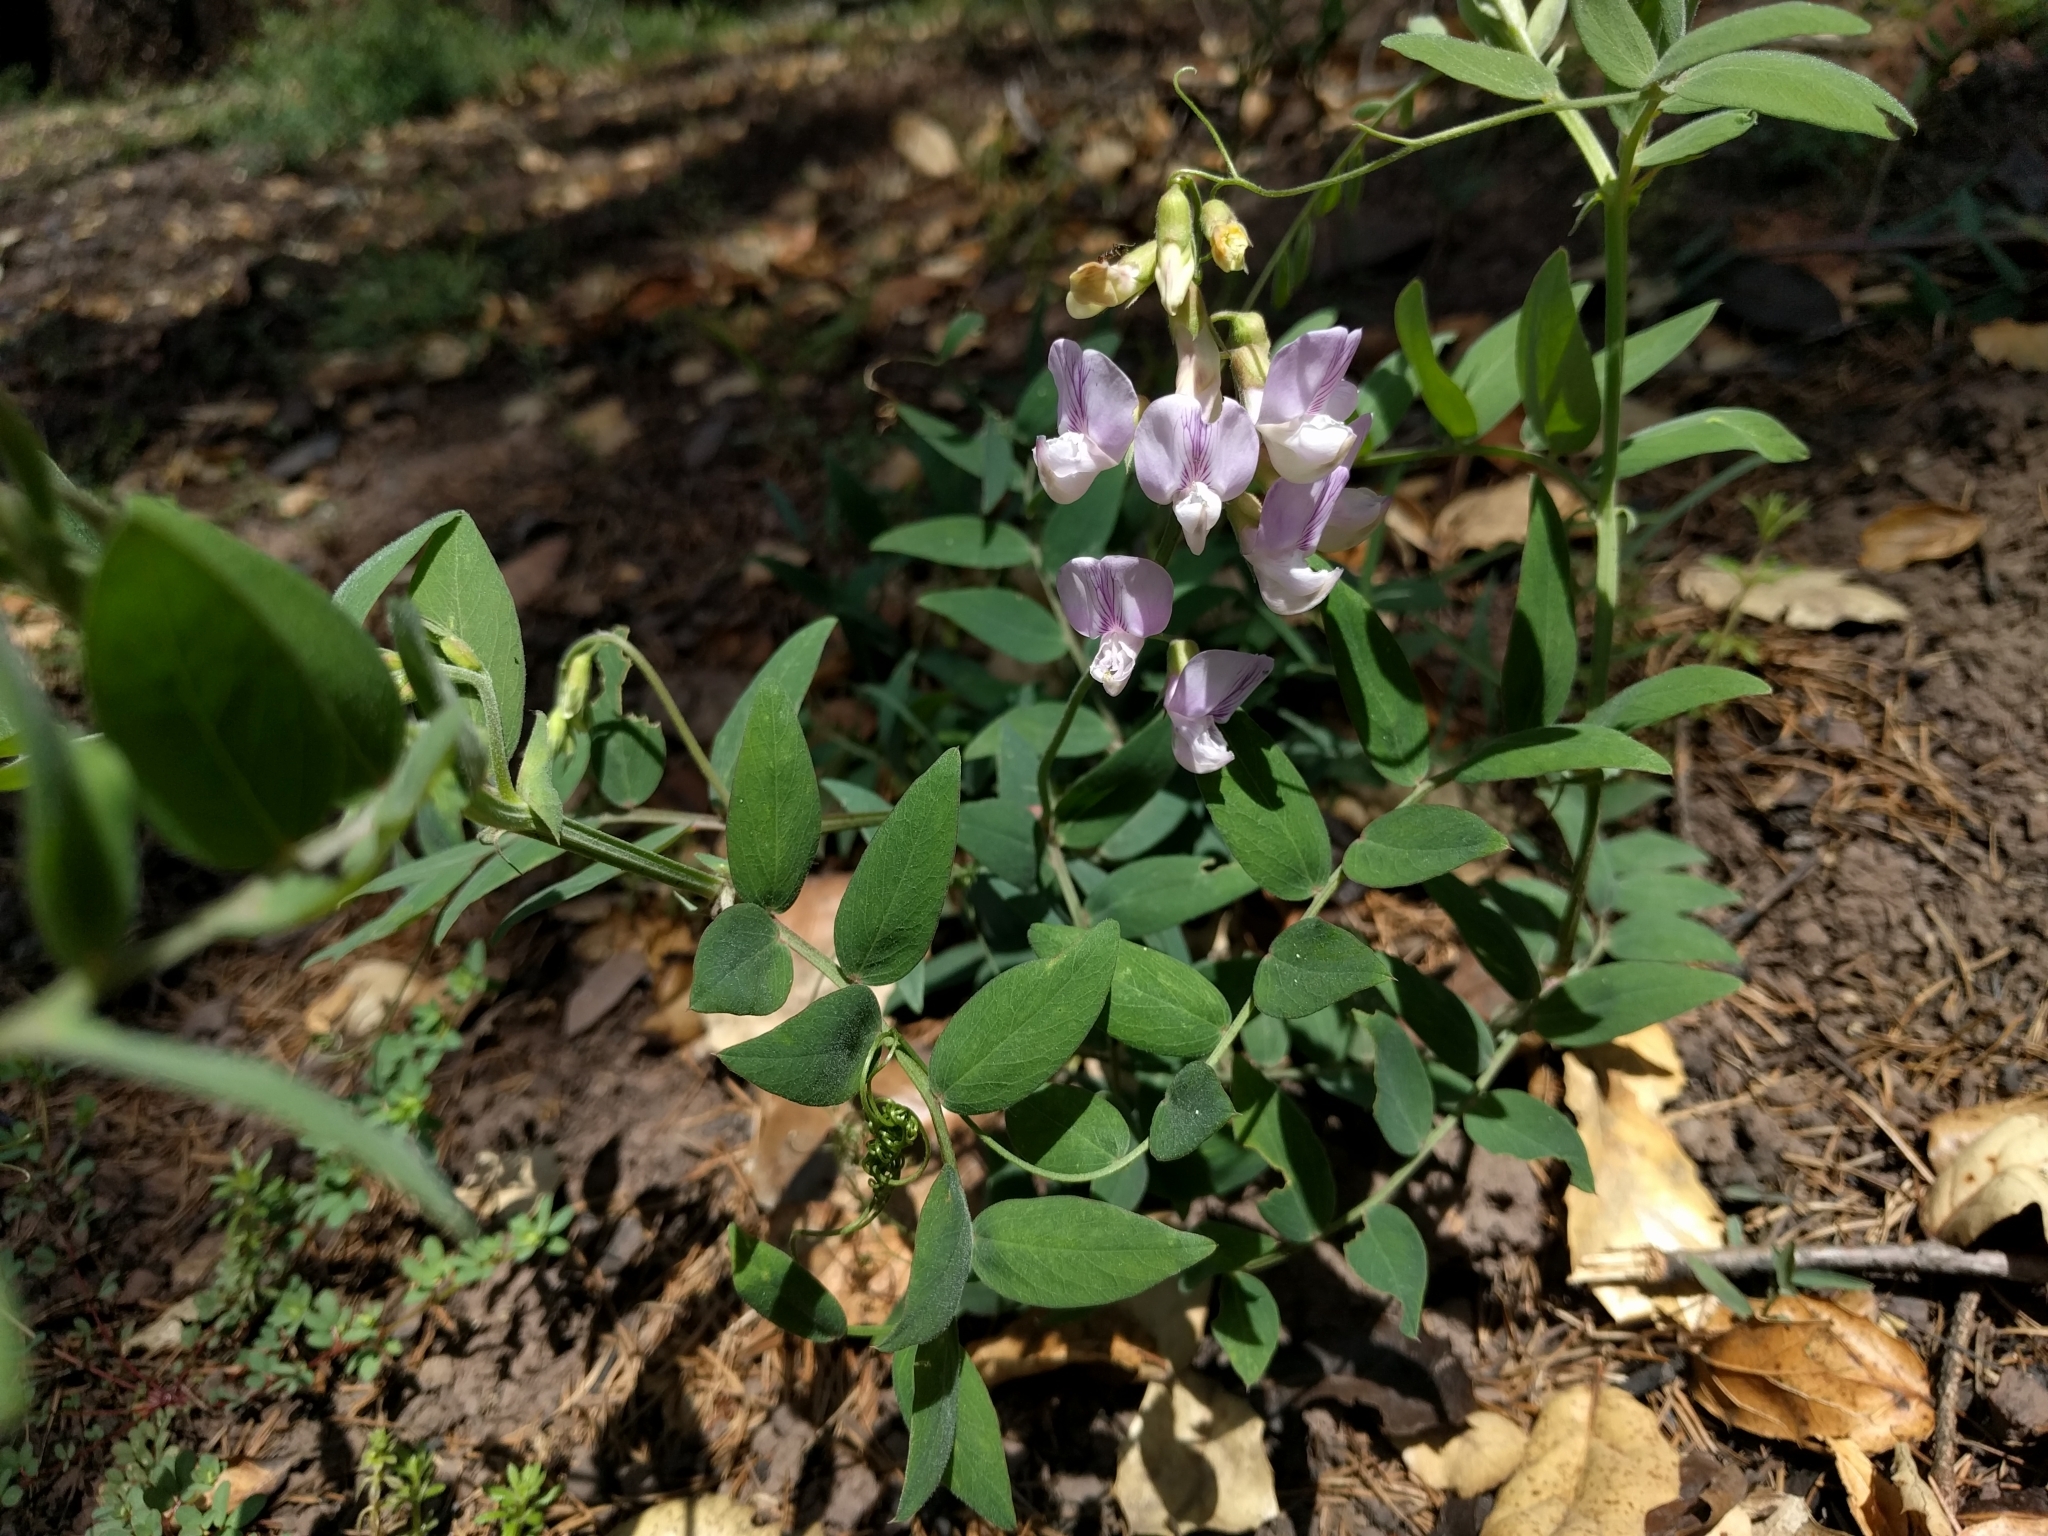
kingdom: Plantae
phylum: Tracheophyta
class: Magnoliopsida
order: Fabales
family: Fabaceae
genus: Lathyrus
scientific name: Lathyrus vestitus
